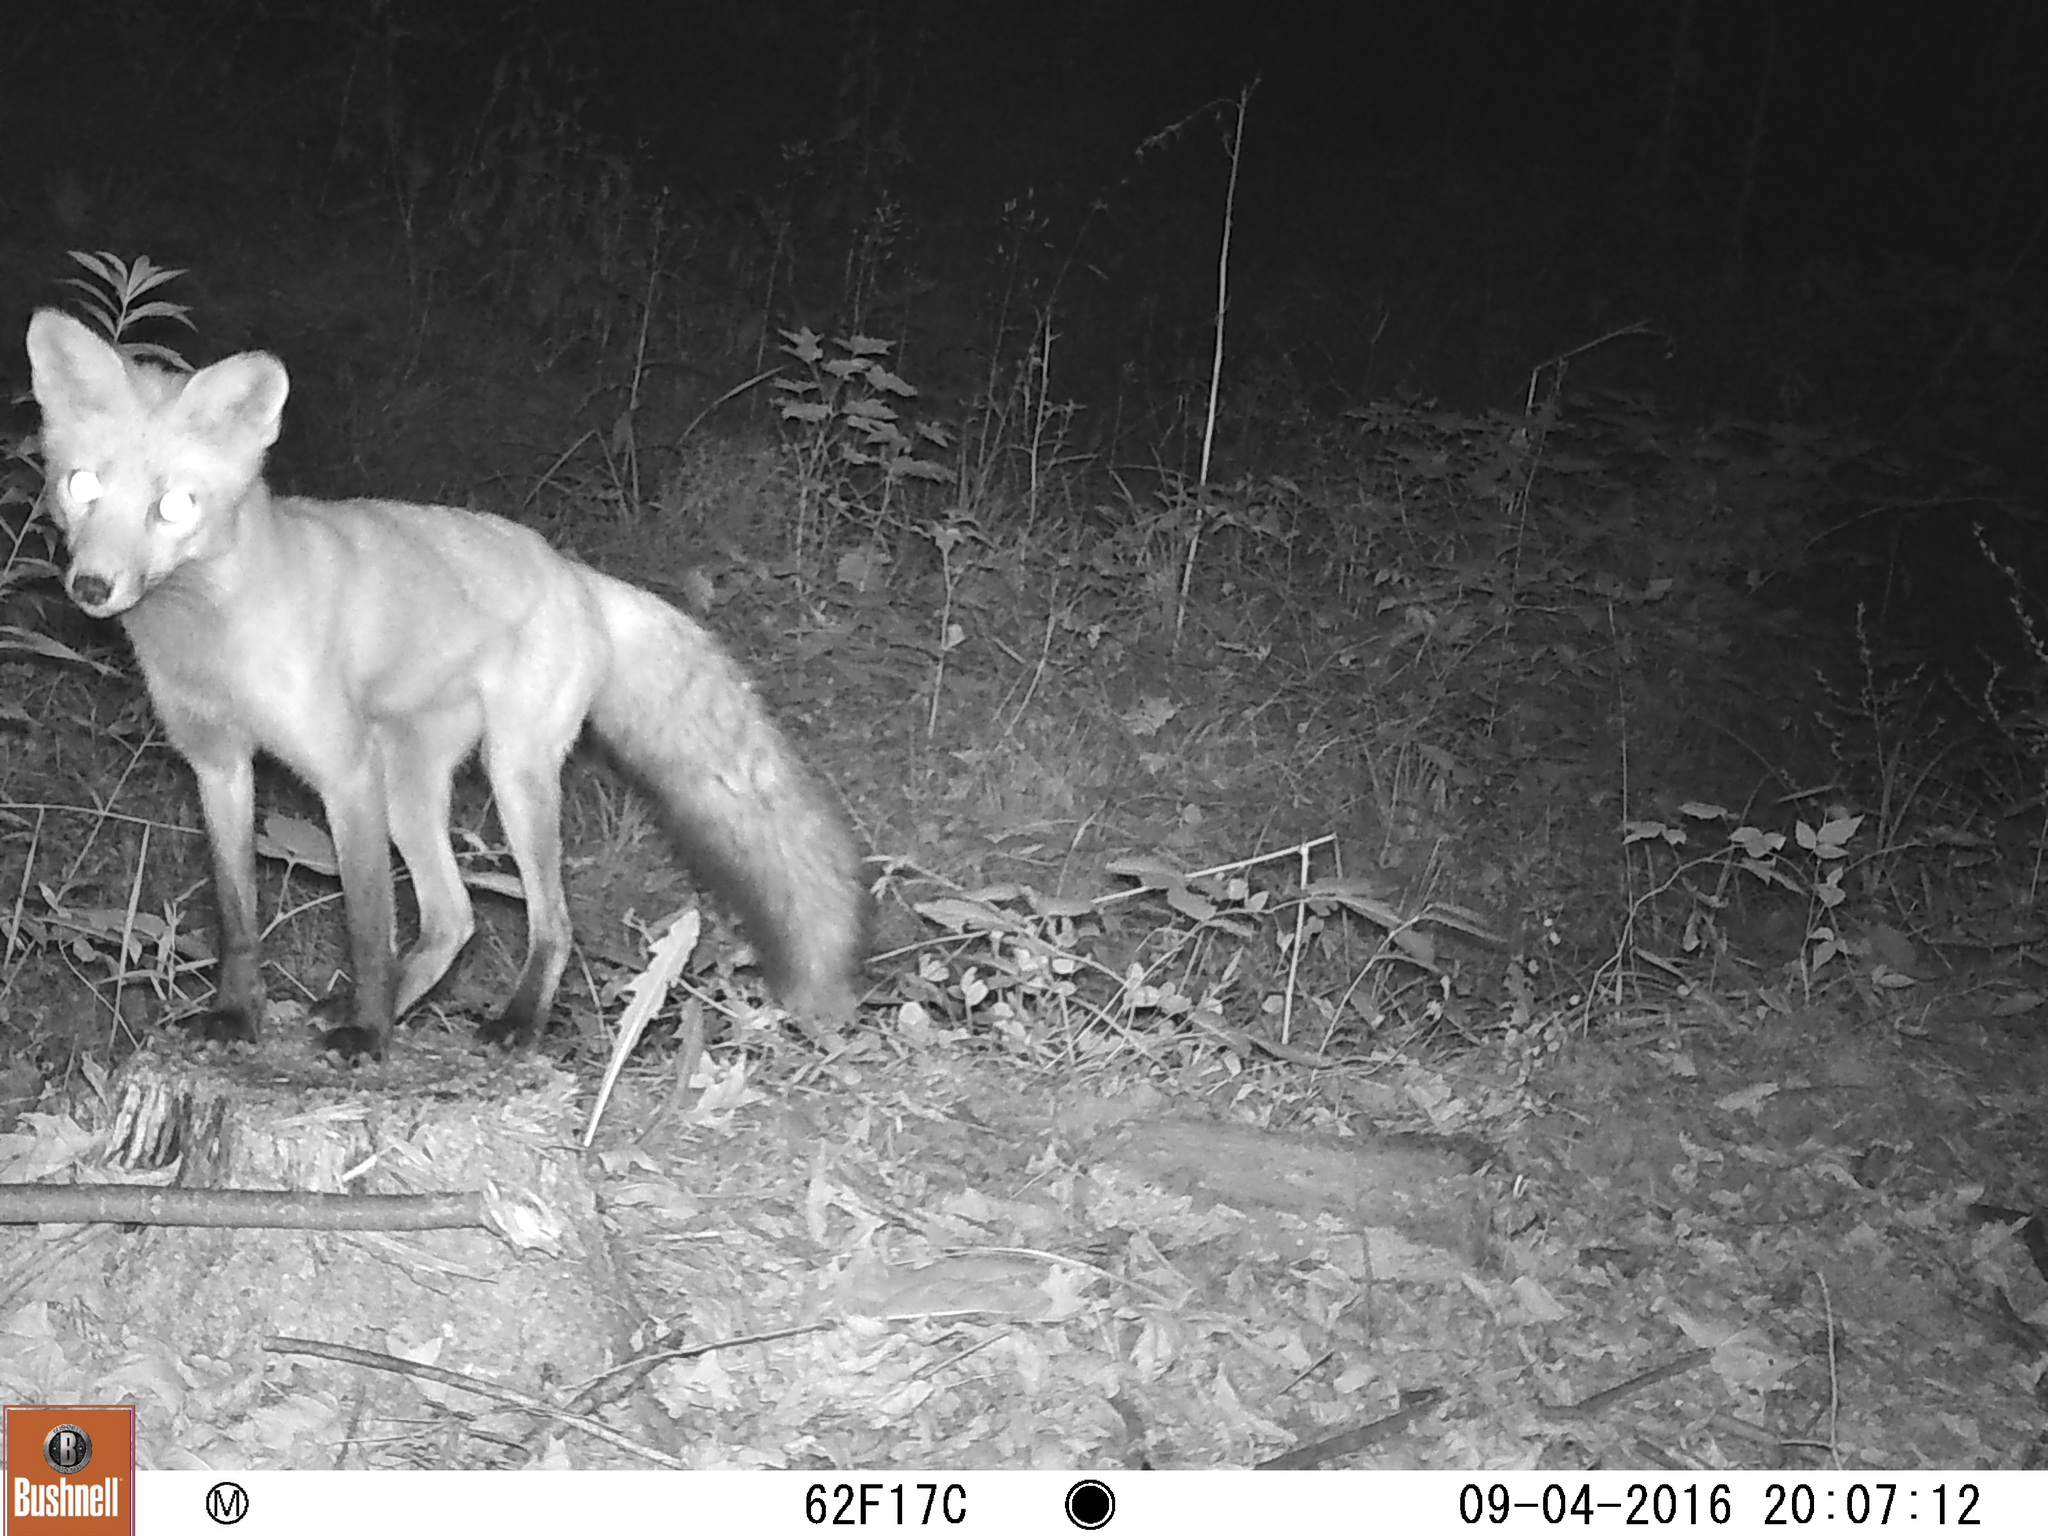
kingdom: Animalia
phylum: Chordata
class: Mammalia
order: Carnivora
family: Canidae
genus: Vulpes
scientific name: Vulpes vulpes
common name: Red fox
